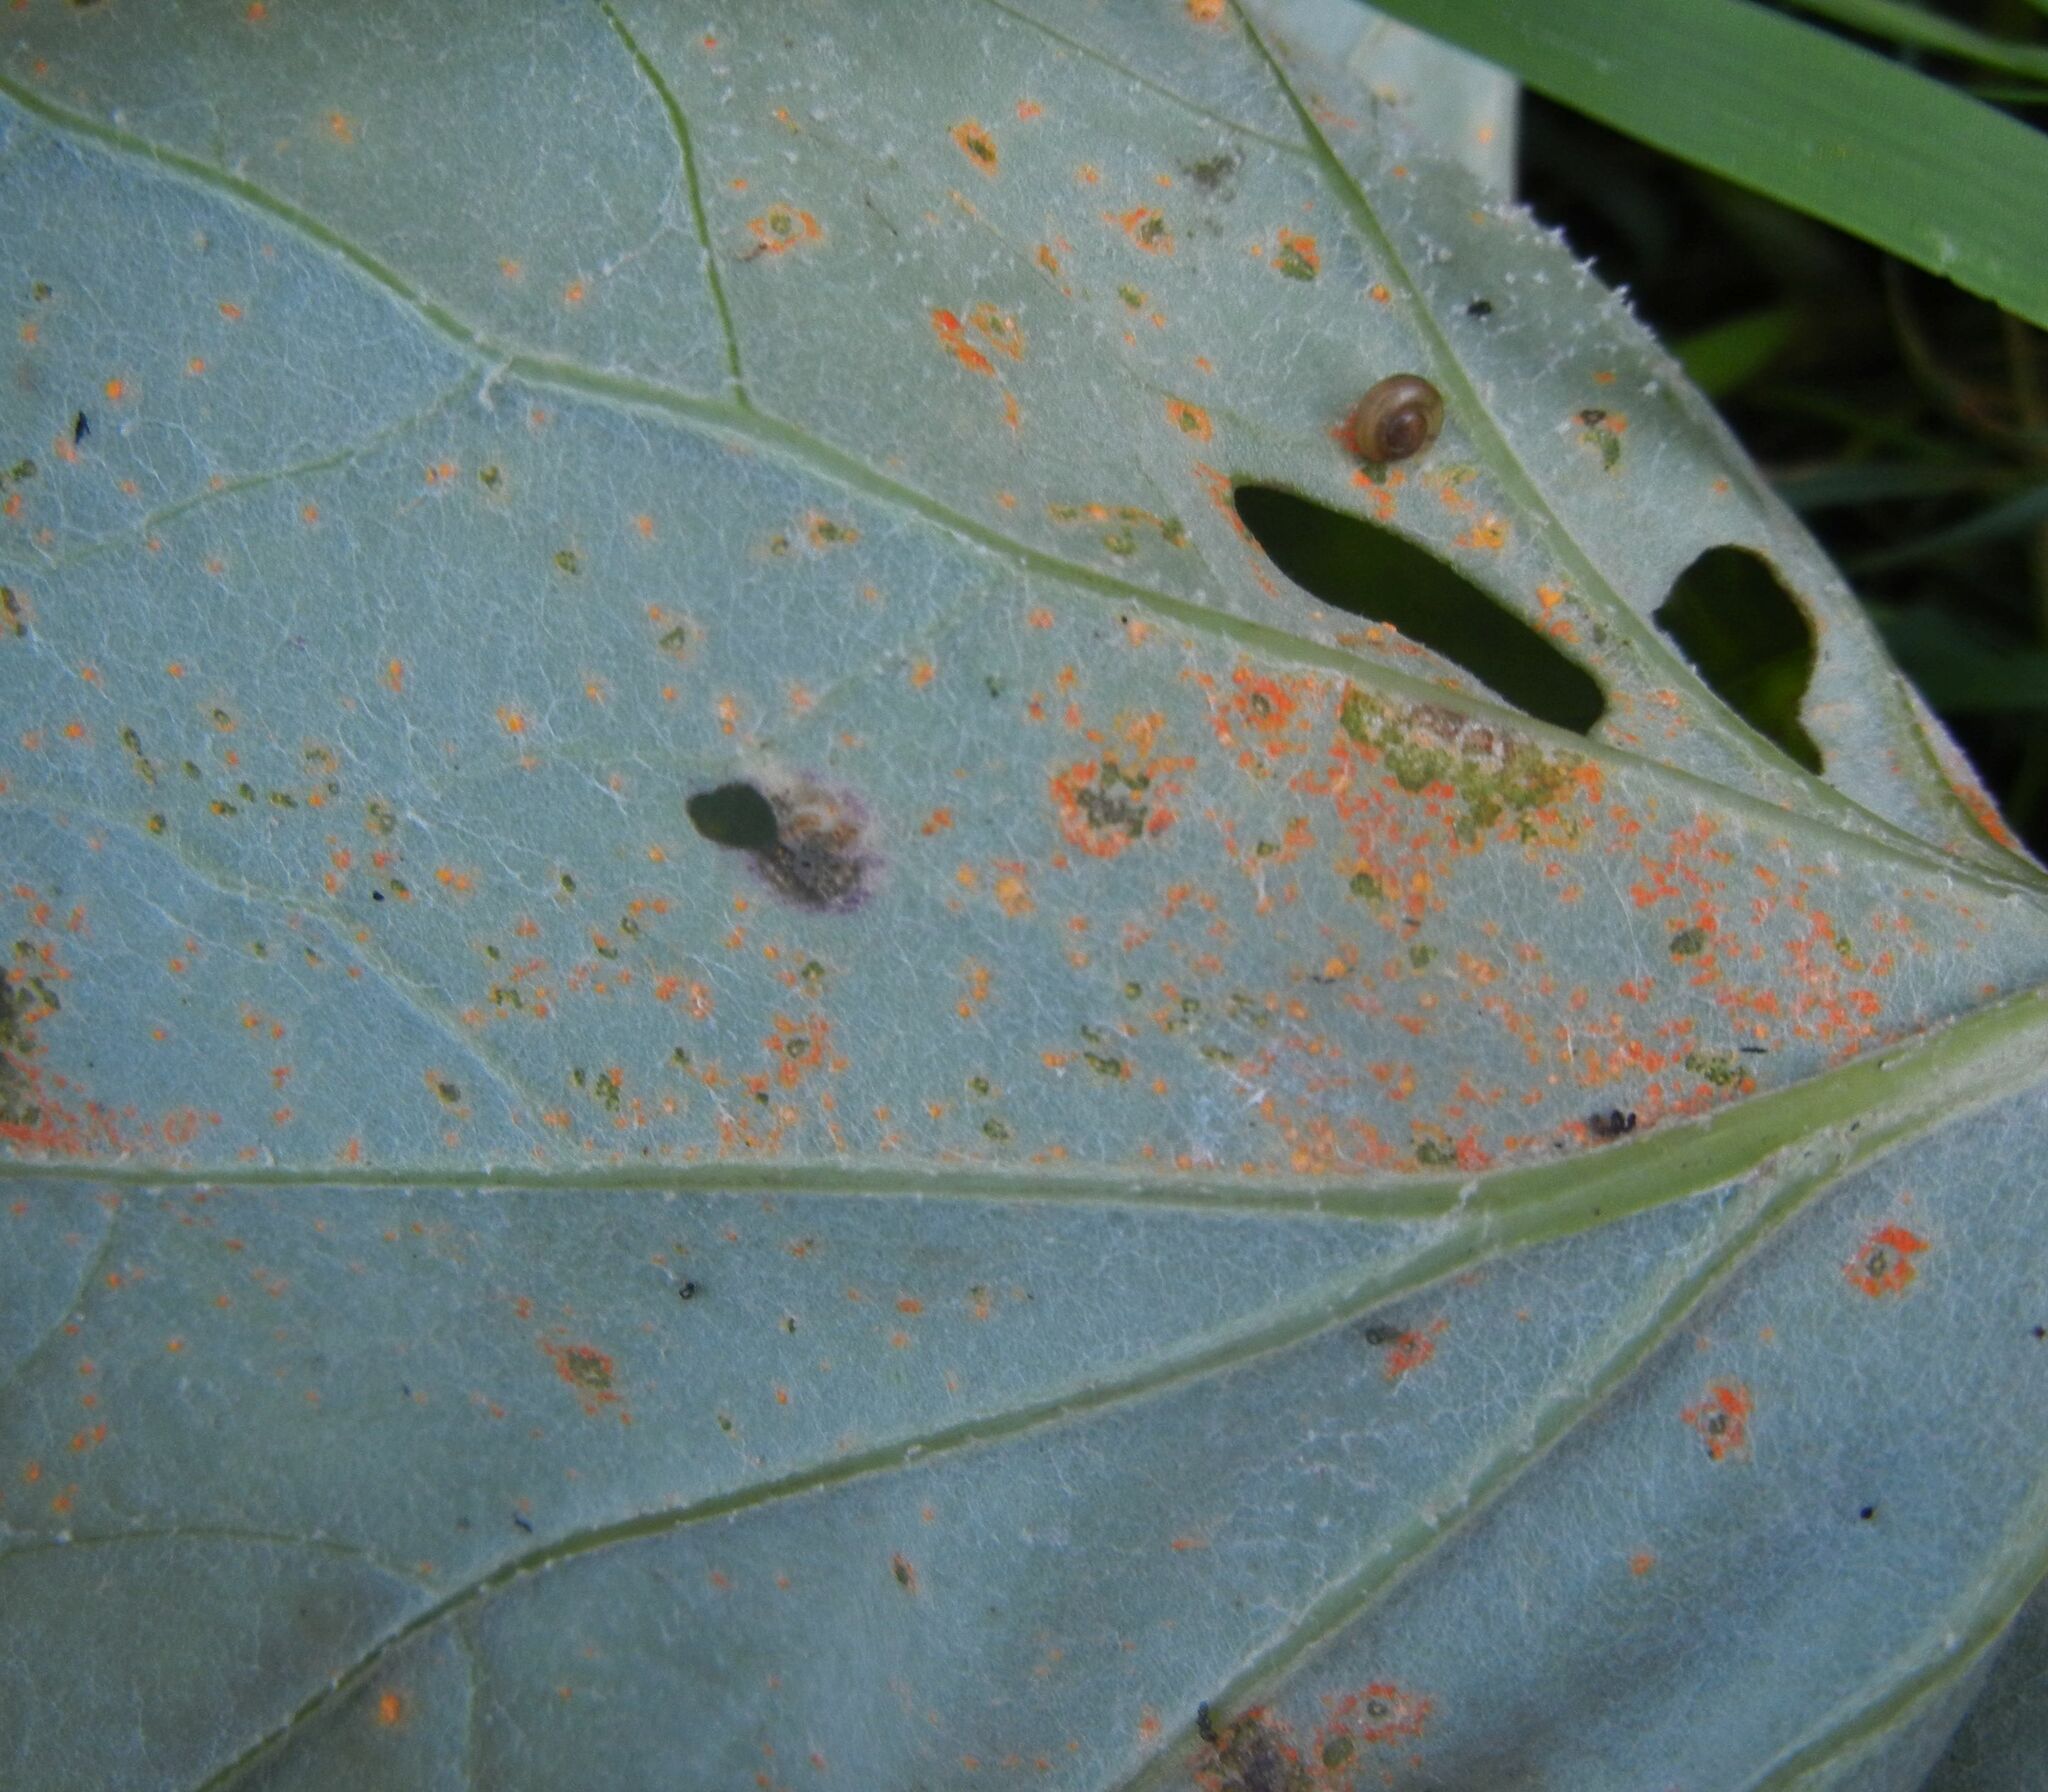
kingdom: Fungi
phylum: Basidiomycota
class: Pucciniomycetes
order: Pucciniales
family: Coleosporiaceae
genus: Coleosporium
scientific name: Coleosporium tussilaginis
